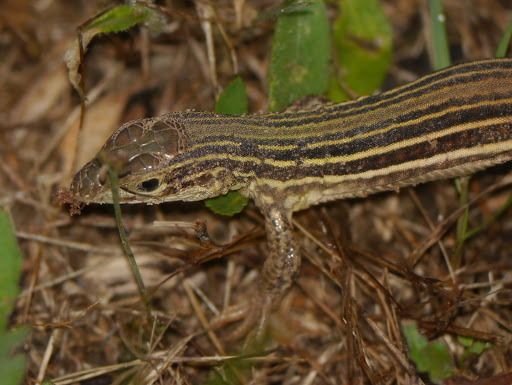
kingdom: Animalia
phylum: Chordata
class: Squamata
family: Teiidae
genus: Aspidoscelis
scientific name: Aspidoscelis gularis
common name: Eastern spotted whiptail
